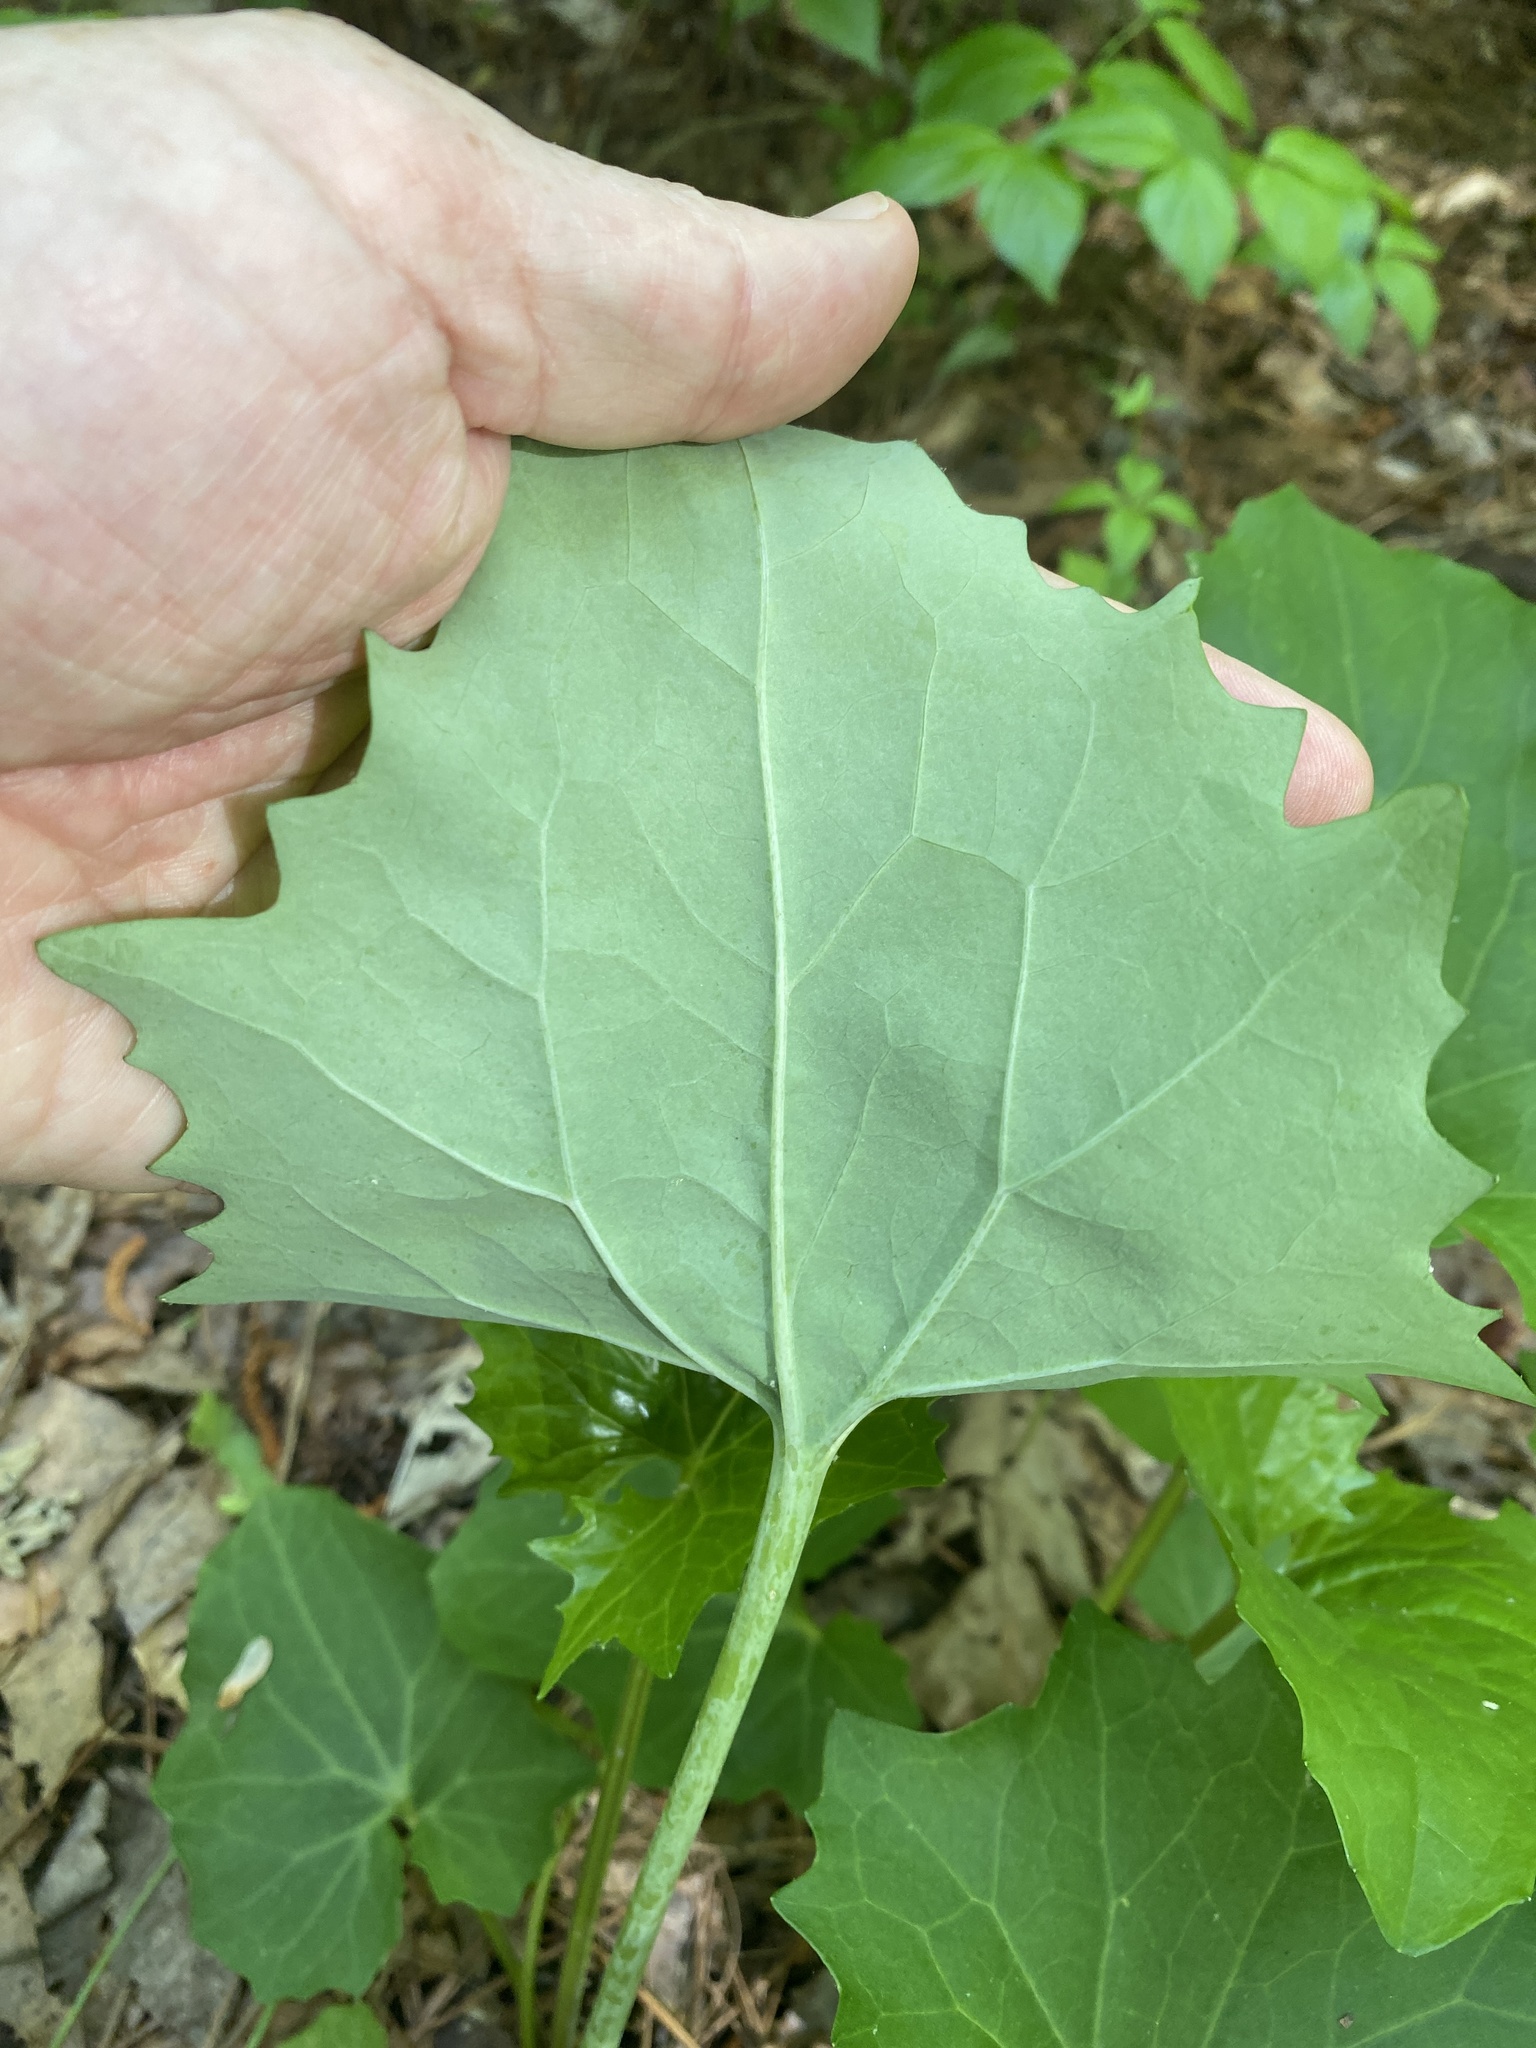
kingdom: Plantae
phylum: Tracheophyta
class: Magnoliopsida
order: Asterales
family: Asteraceae
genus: Arnoglossum
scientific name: Arnoglossum atriplicifolium
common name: Pale indian-plantain
